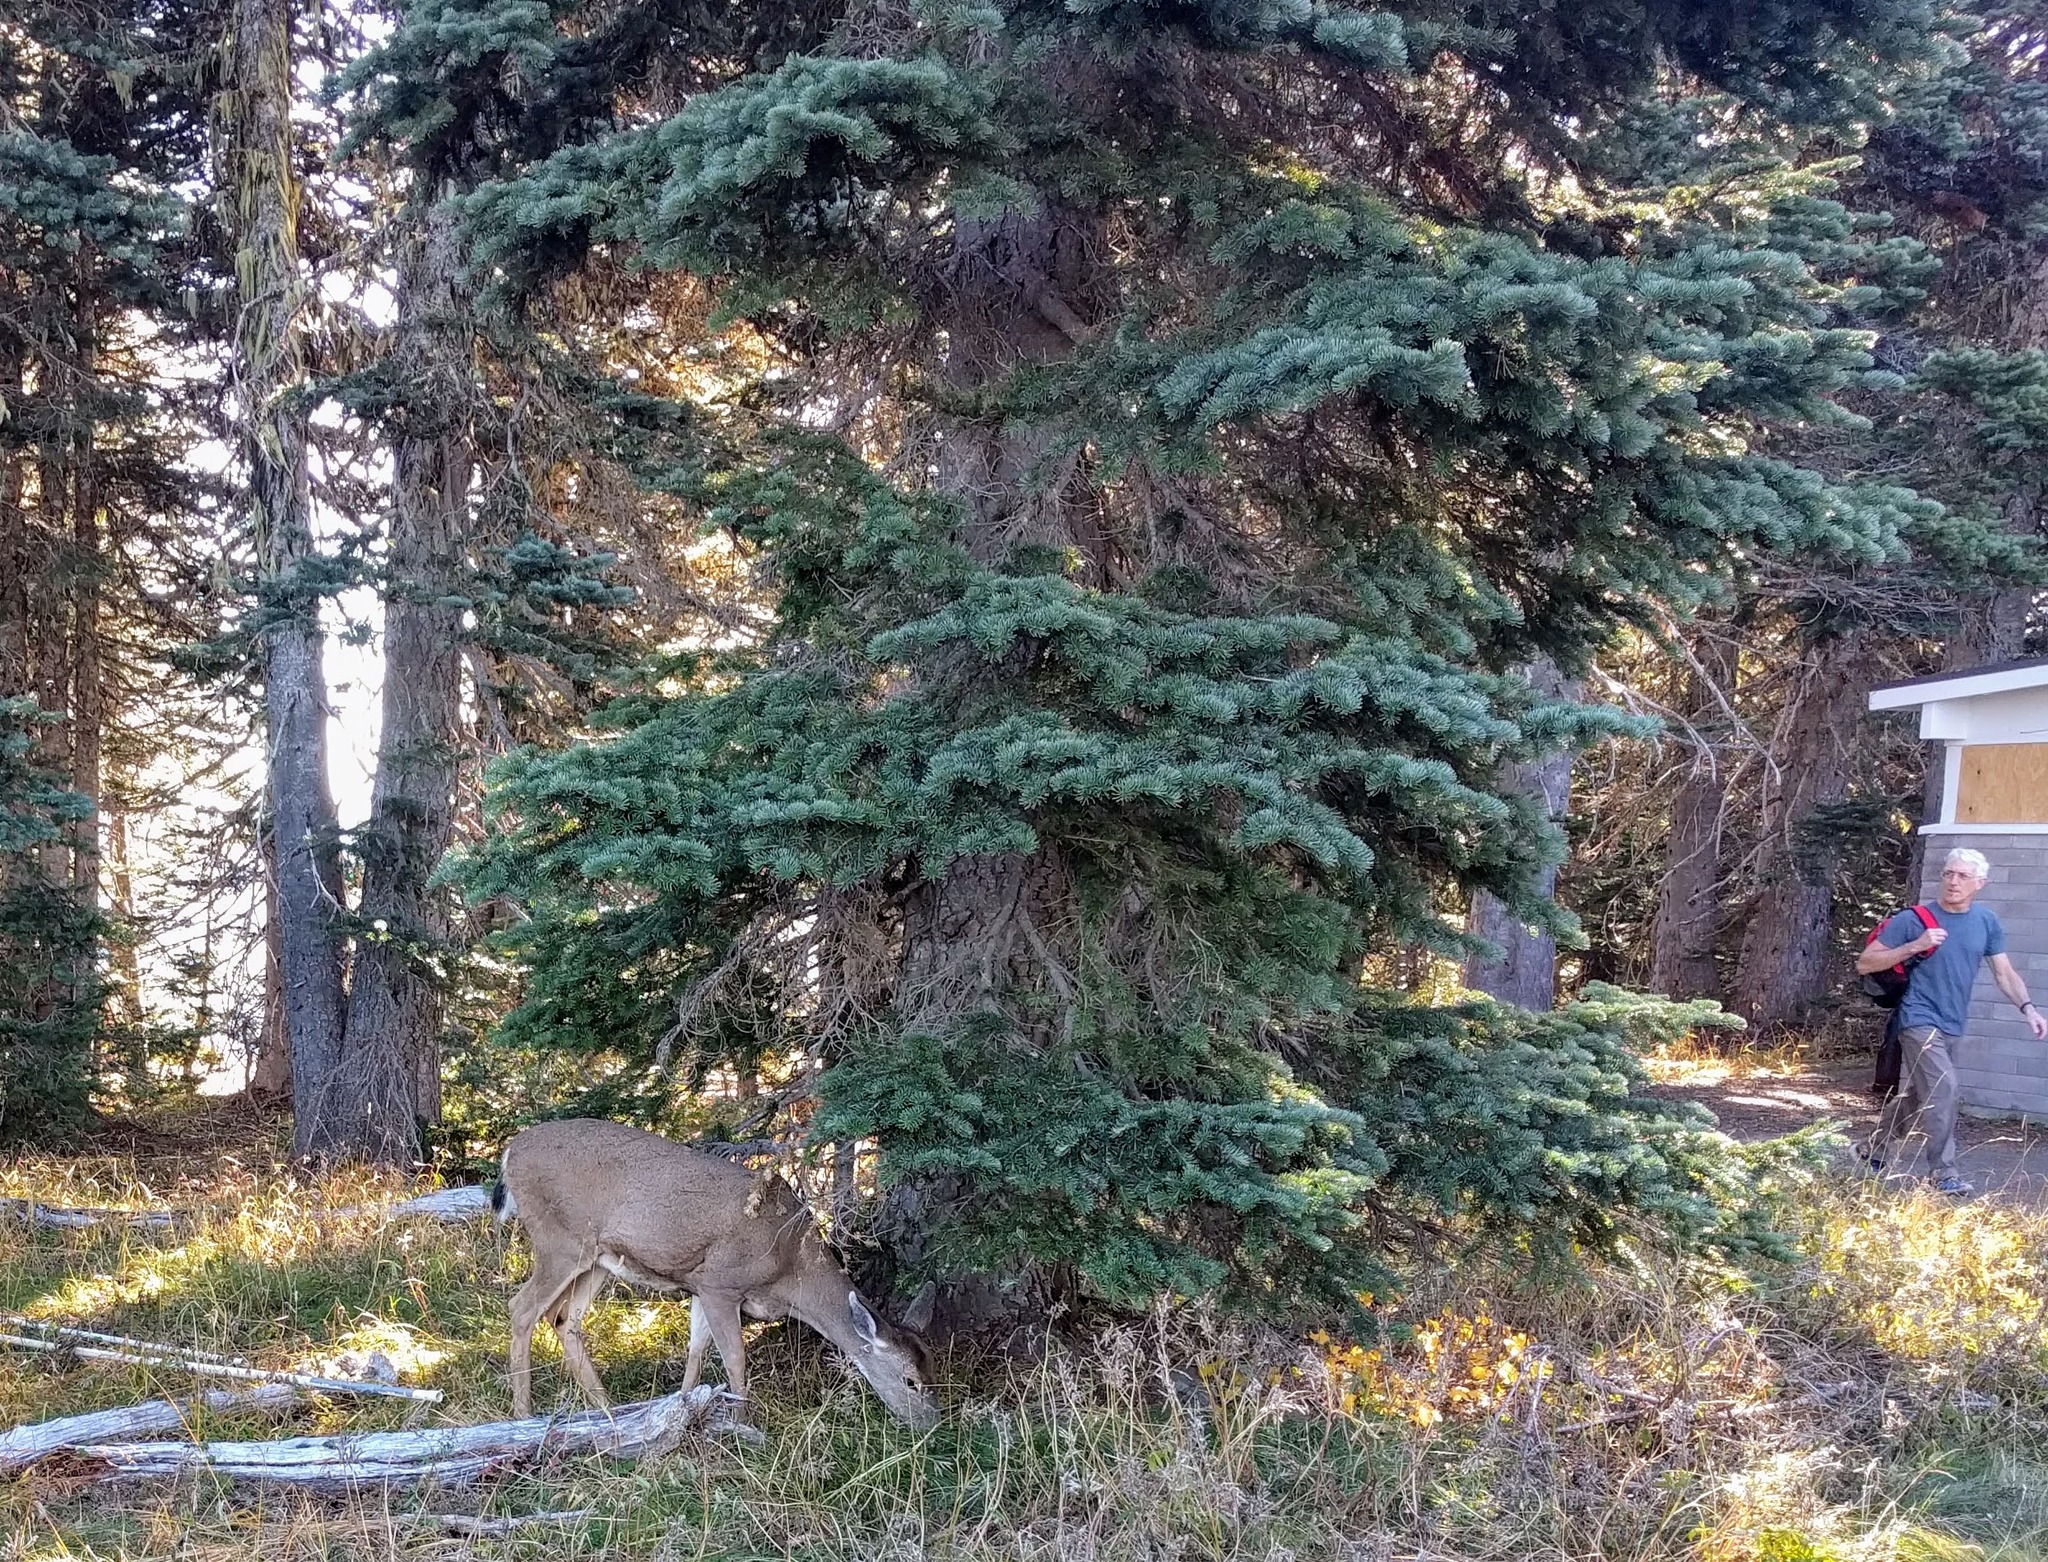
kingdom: Animalia
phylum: Chordata
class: Mammalia
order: Artiodactyla
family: Cervidae
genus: Odocoileus
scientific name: Odocoileus hemionus
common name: Mule deer
